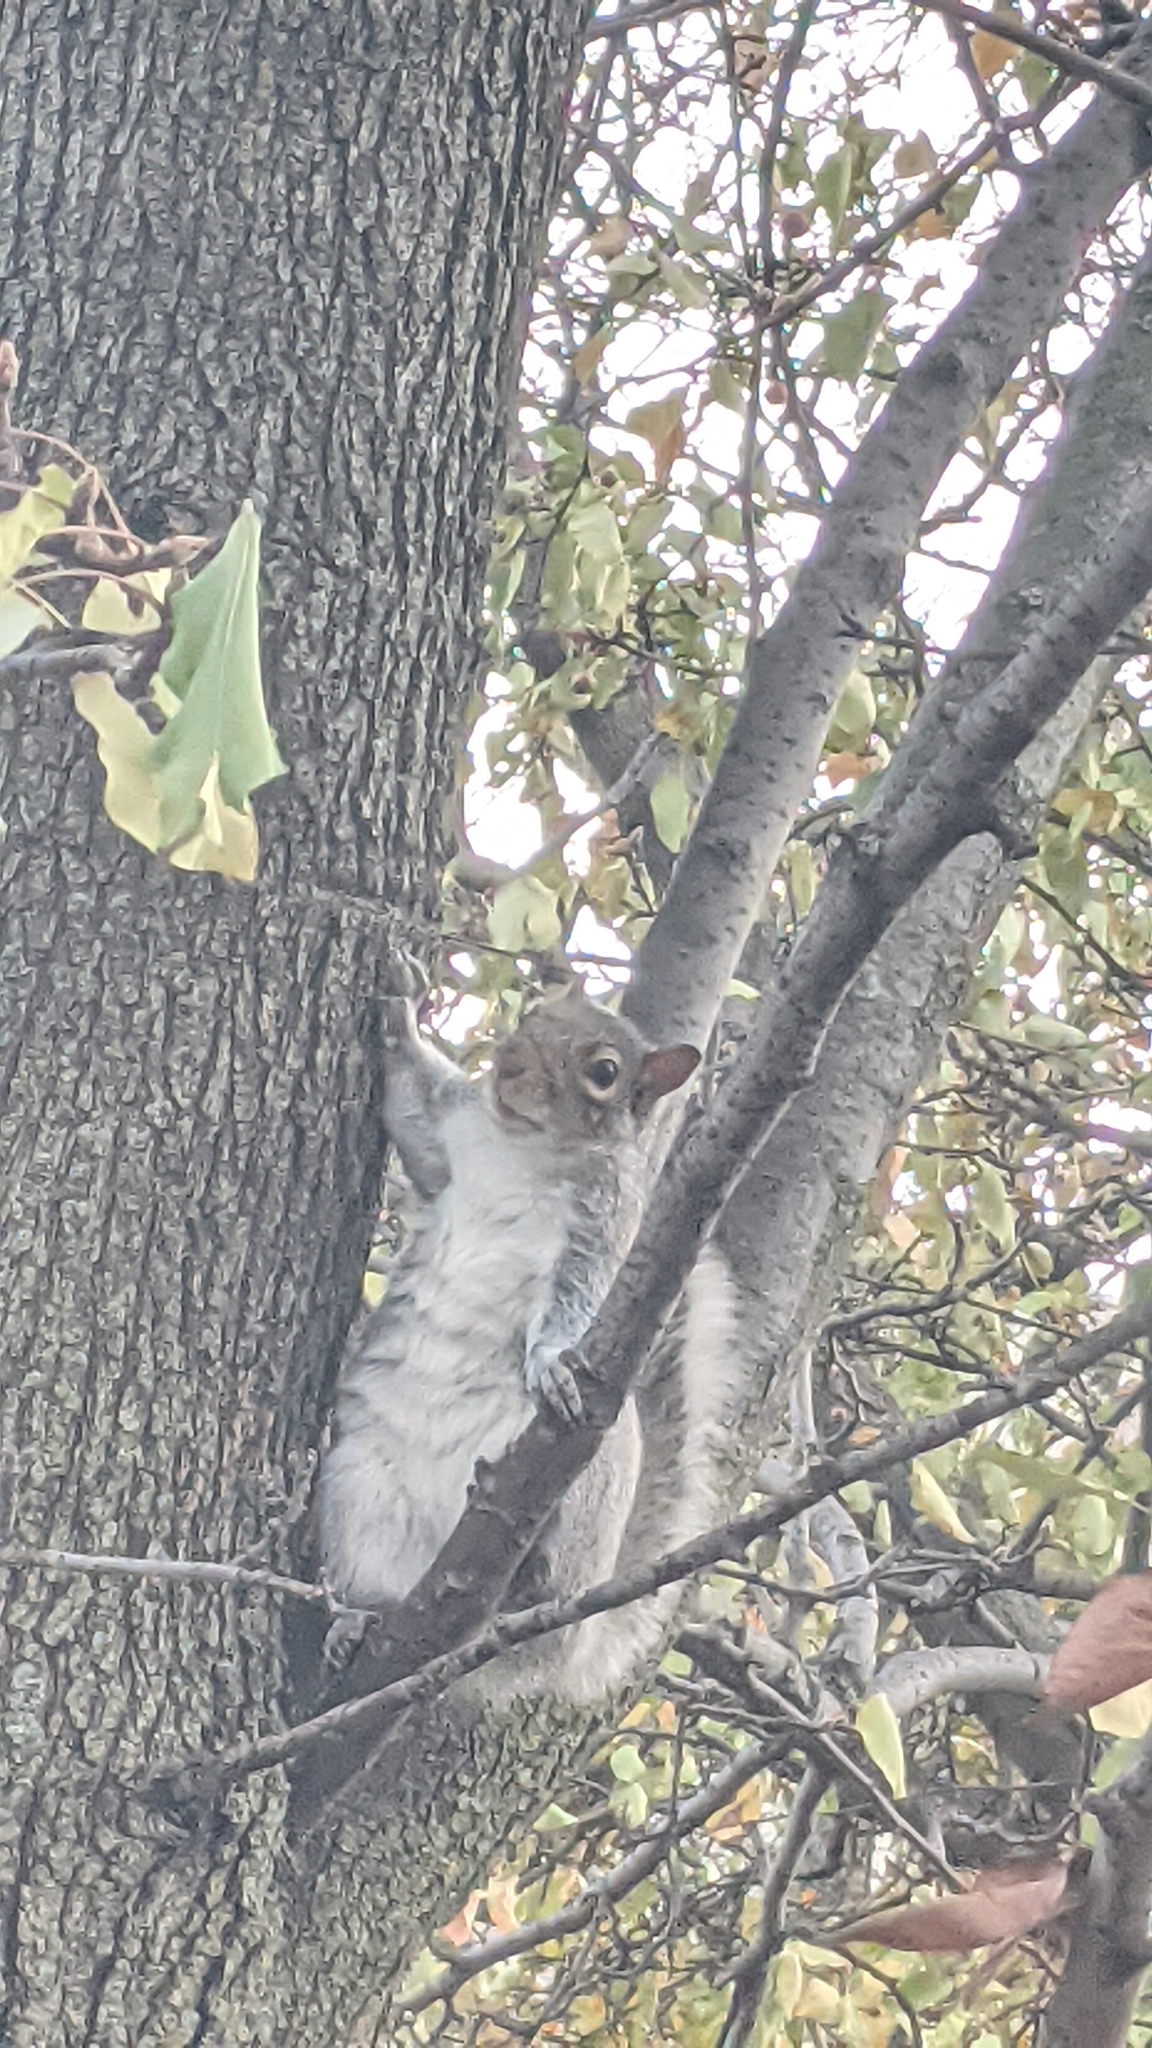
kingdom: Animalia
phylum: Chordata
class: Mammalia
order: Rodentia
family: Sciuridae
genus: Sciurus
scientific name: Sciurus carolinensis
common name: Eastern gray squirrel
